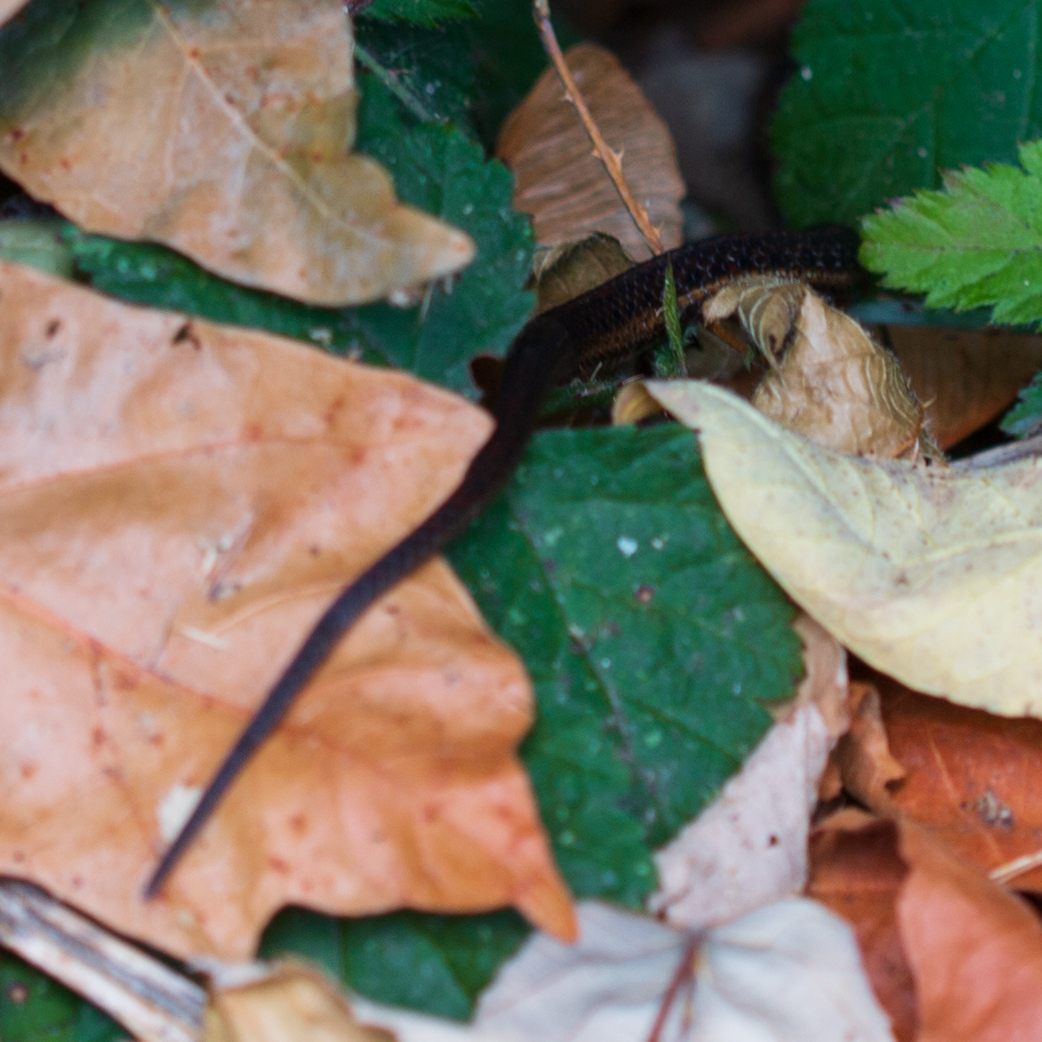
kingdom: Animalia
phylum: Chordata
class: Squamata
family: Colubridae
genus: Thamnophis
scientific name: Thamnophis ordinoides
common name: Northwestern garter snake
